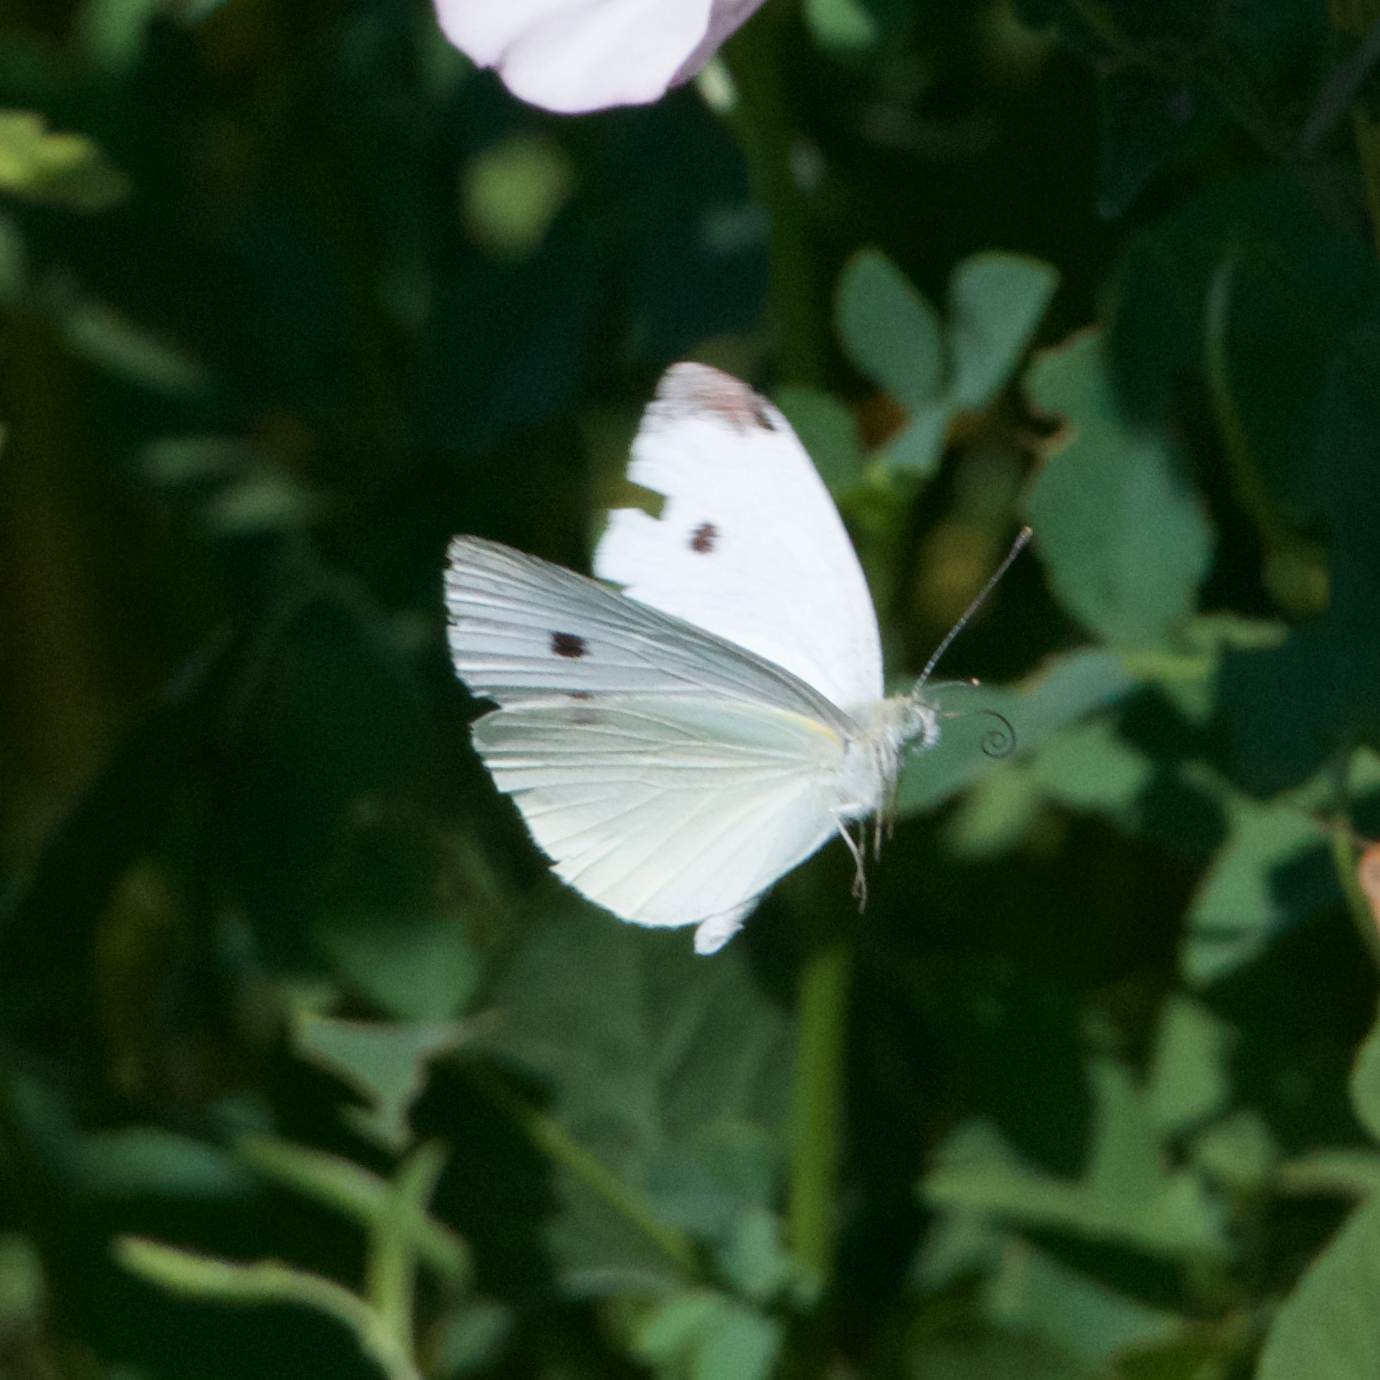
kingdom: Animalia
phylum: Arthropoda
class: Insecta
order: Lepidoptera
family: Pieridae
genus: Pieris
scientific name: Pieris rapae
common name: Small white
